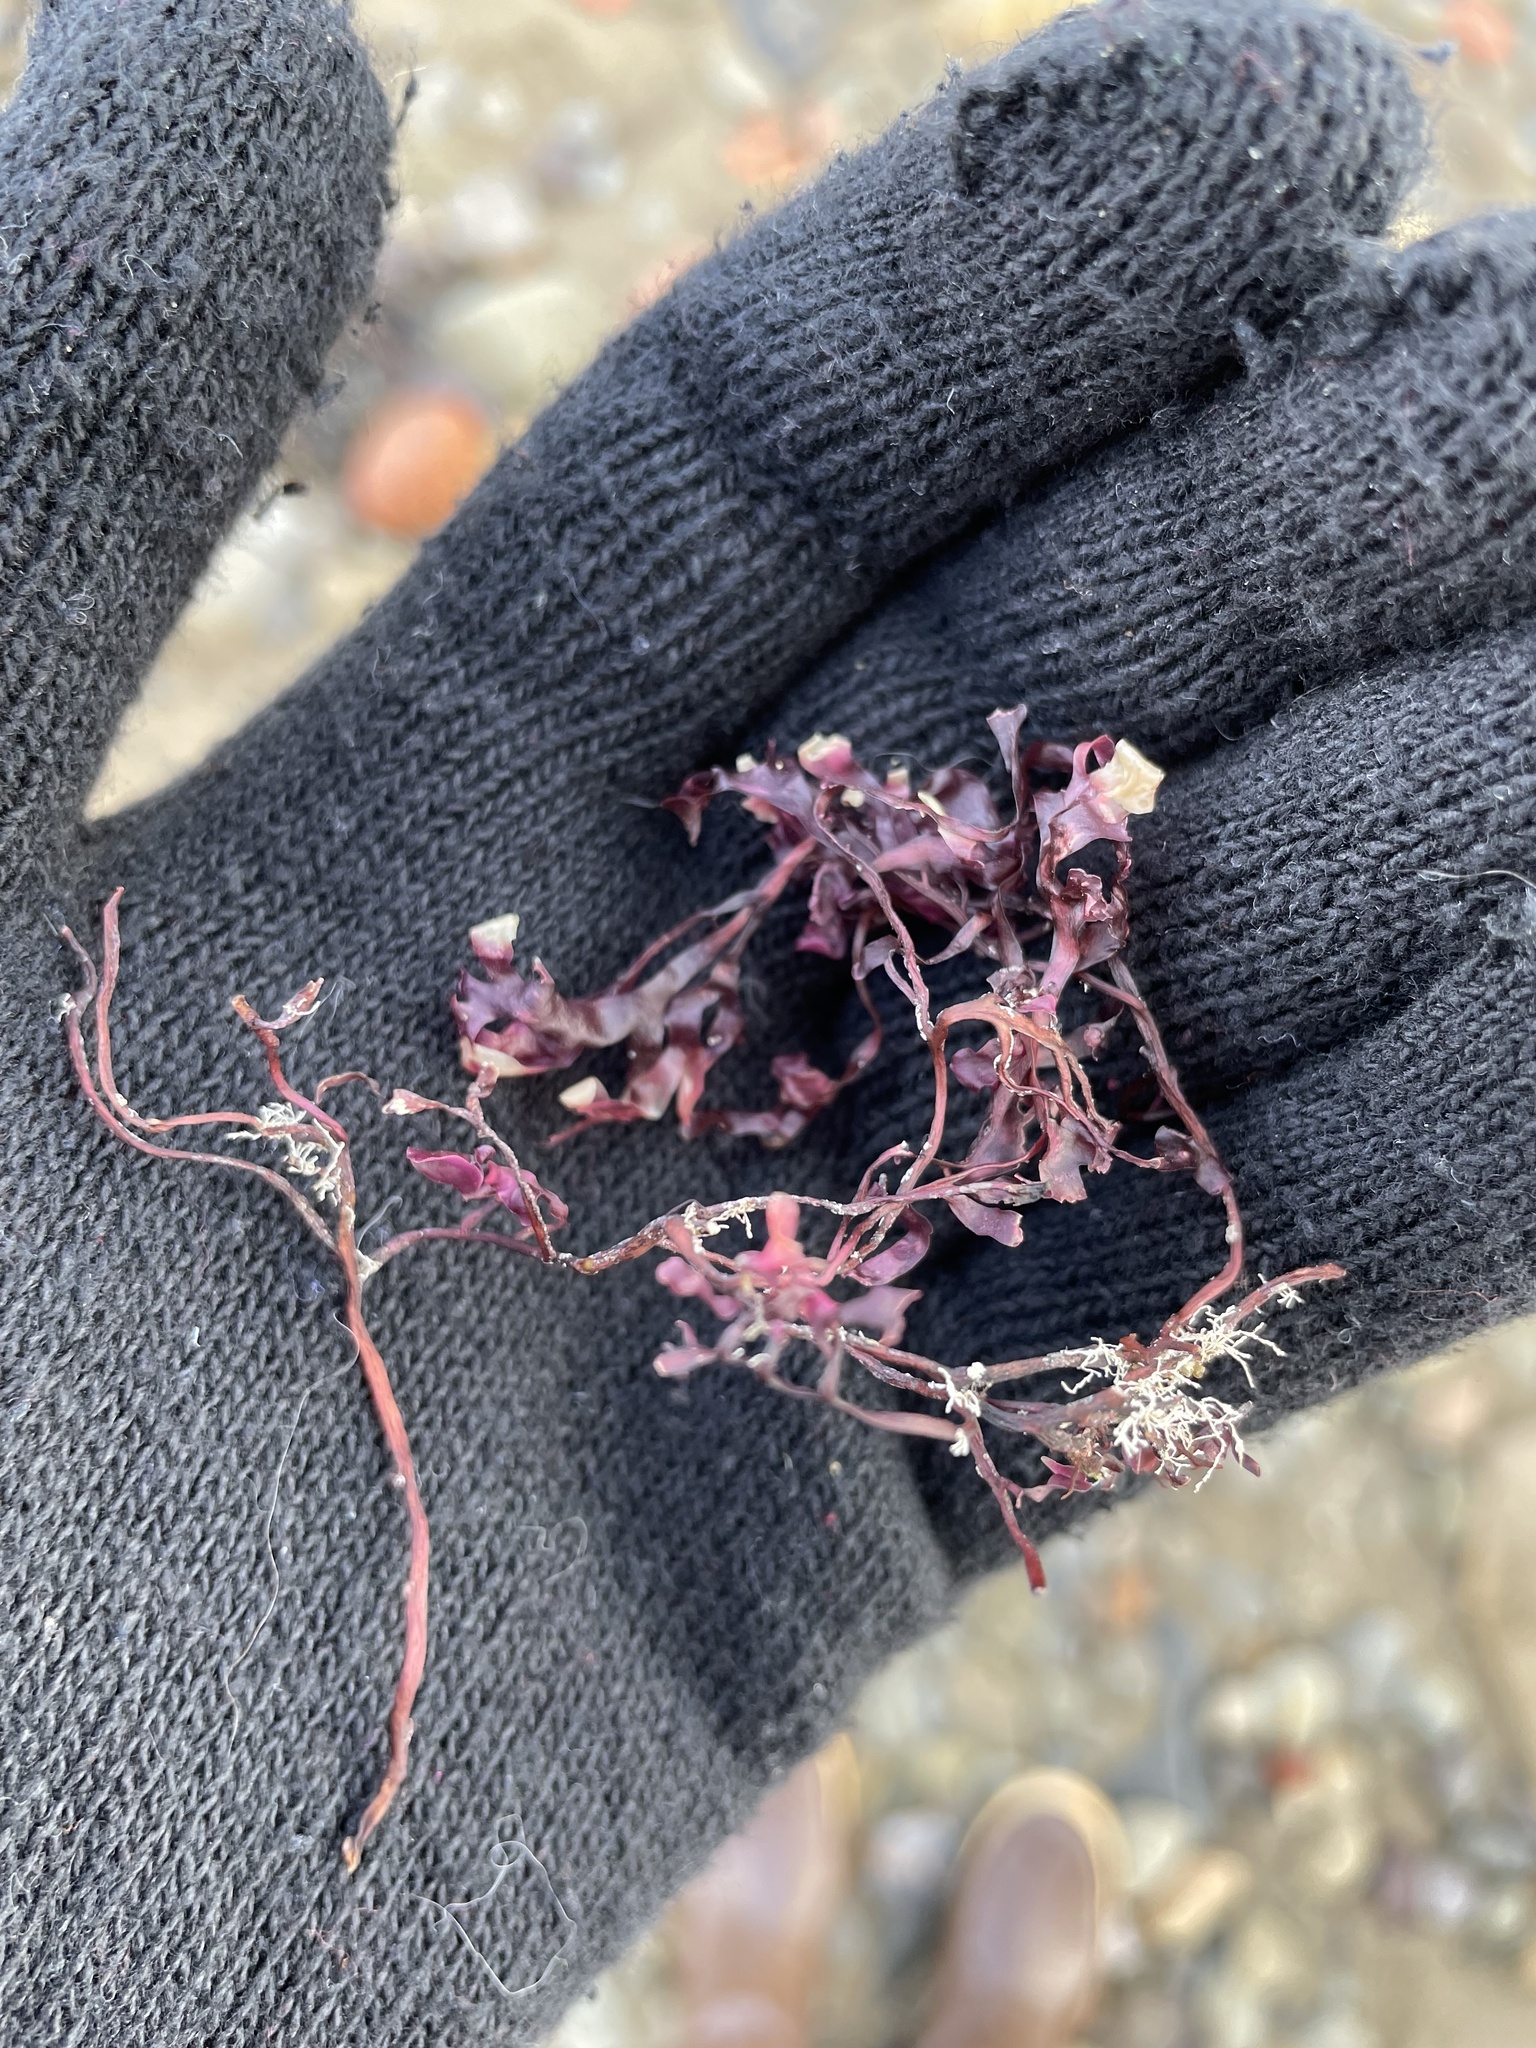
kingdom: Plantae
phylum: Rhodophyta
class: Florideophyceae
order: Gigartinales
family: Gigartinaceae
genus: Chondrus
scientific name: Chondrus crispus
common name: Carrageen
